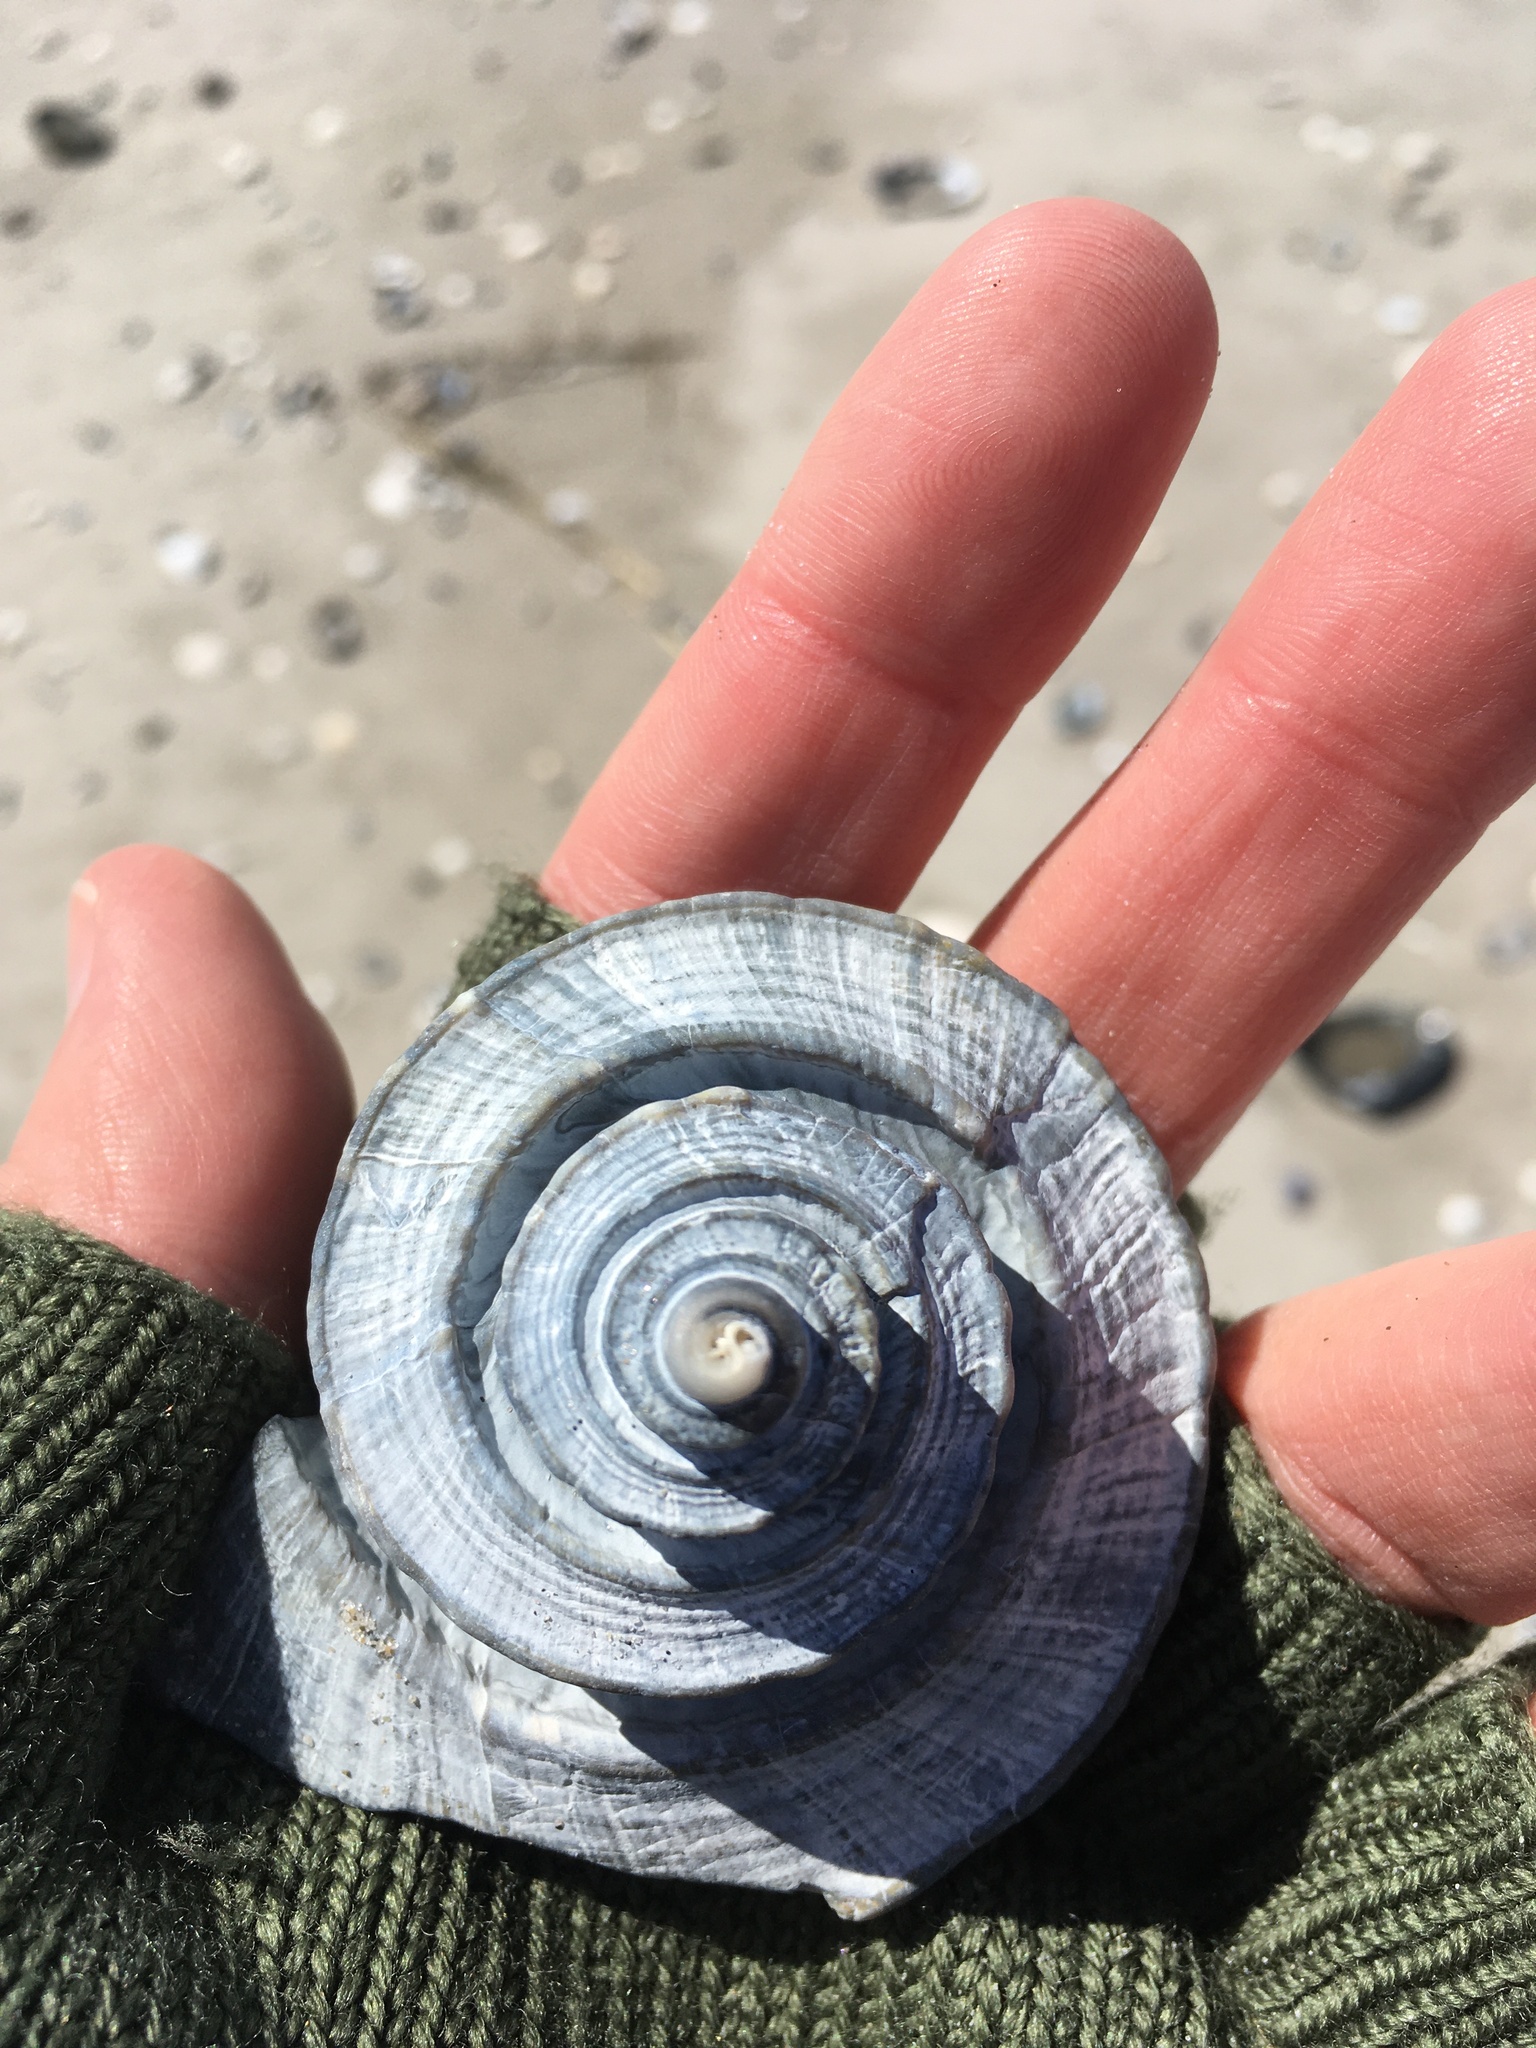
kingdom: Animalia
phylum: Mollusca
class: Gastropoda
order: Neogastropoda
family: Busyconidae
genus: Busycotypus
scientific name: Busycotypus canaliculatus
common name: Channeled whelk
